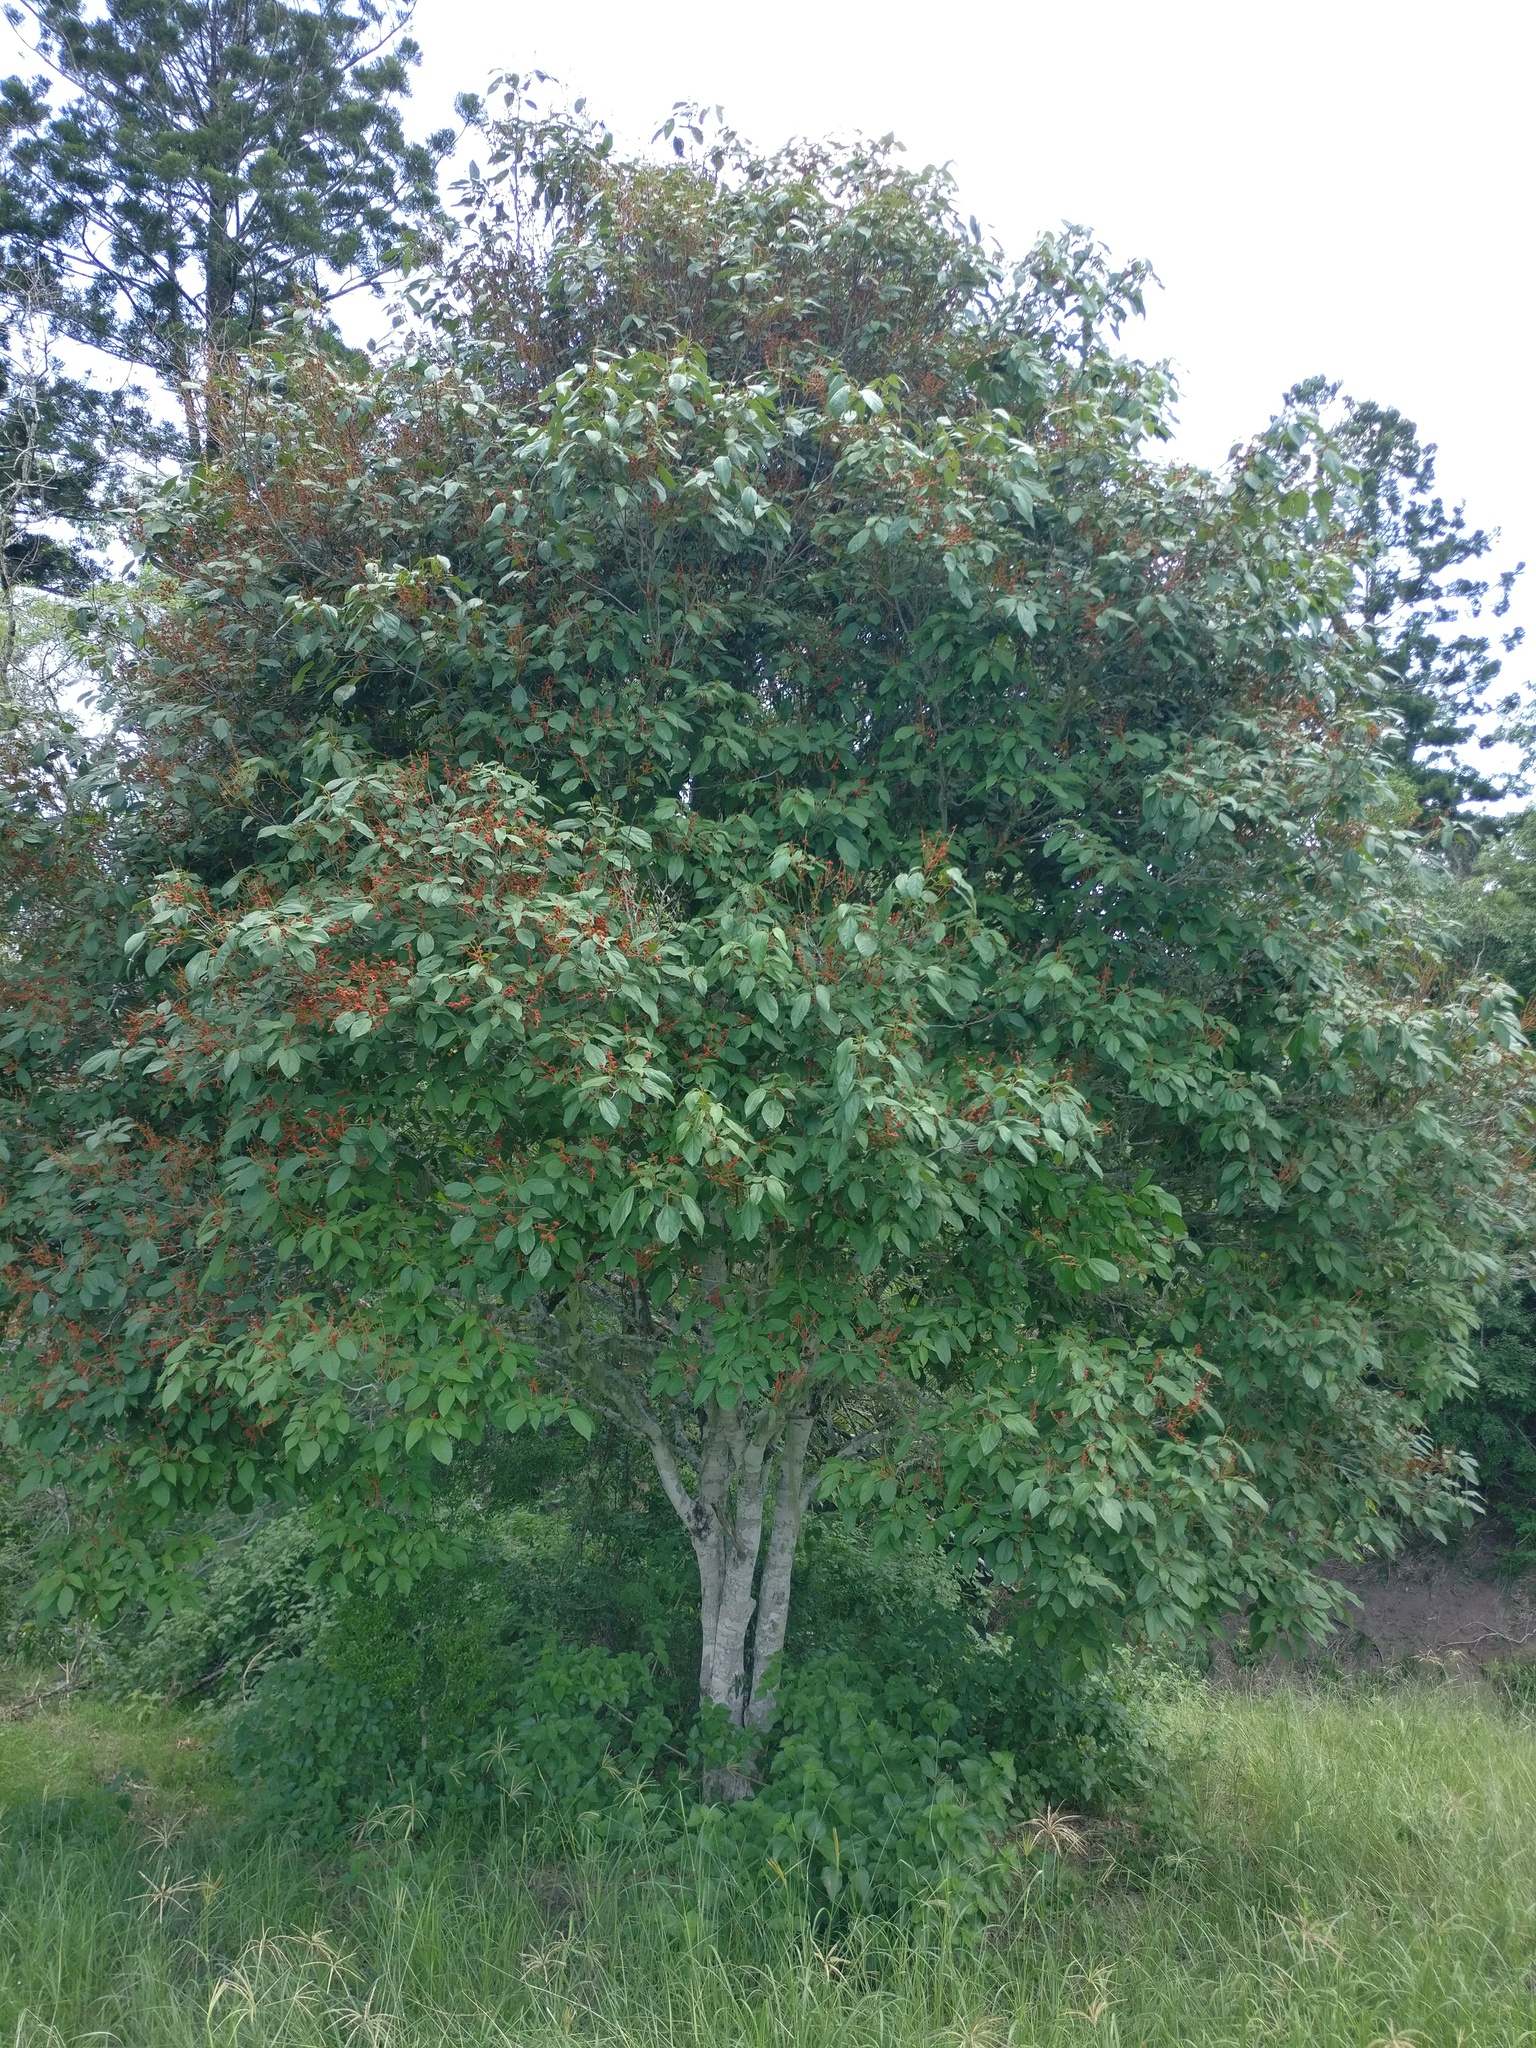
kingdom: Plantae
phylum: Tracheophyta
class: Magnoliopsida
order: Malpighiales
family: Euphorbiaceae
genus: Mallotus
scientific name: Mallotus philippensis
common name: Kamala tree
